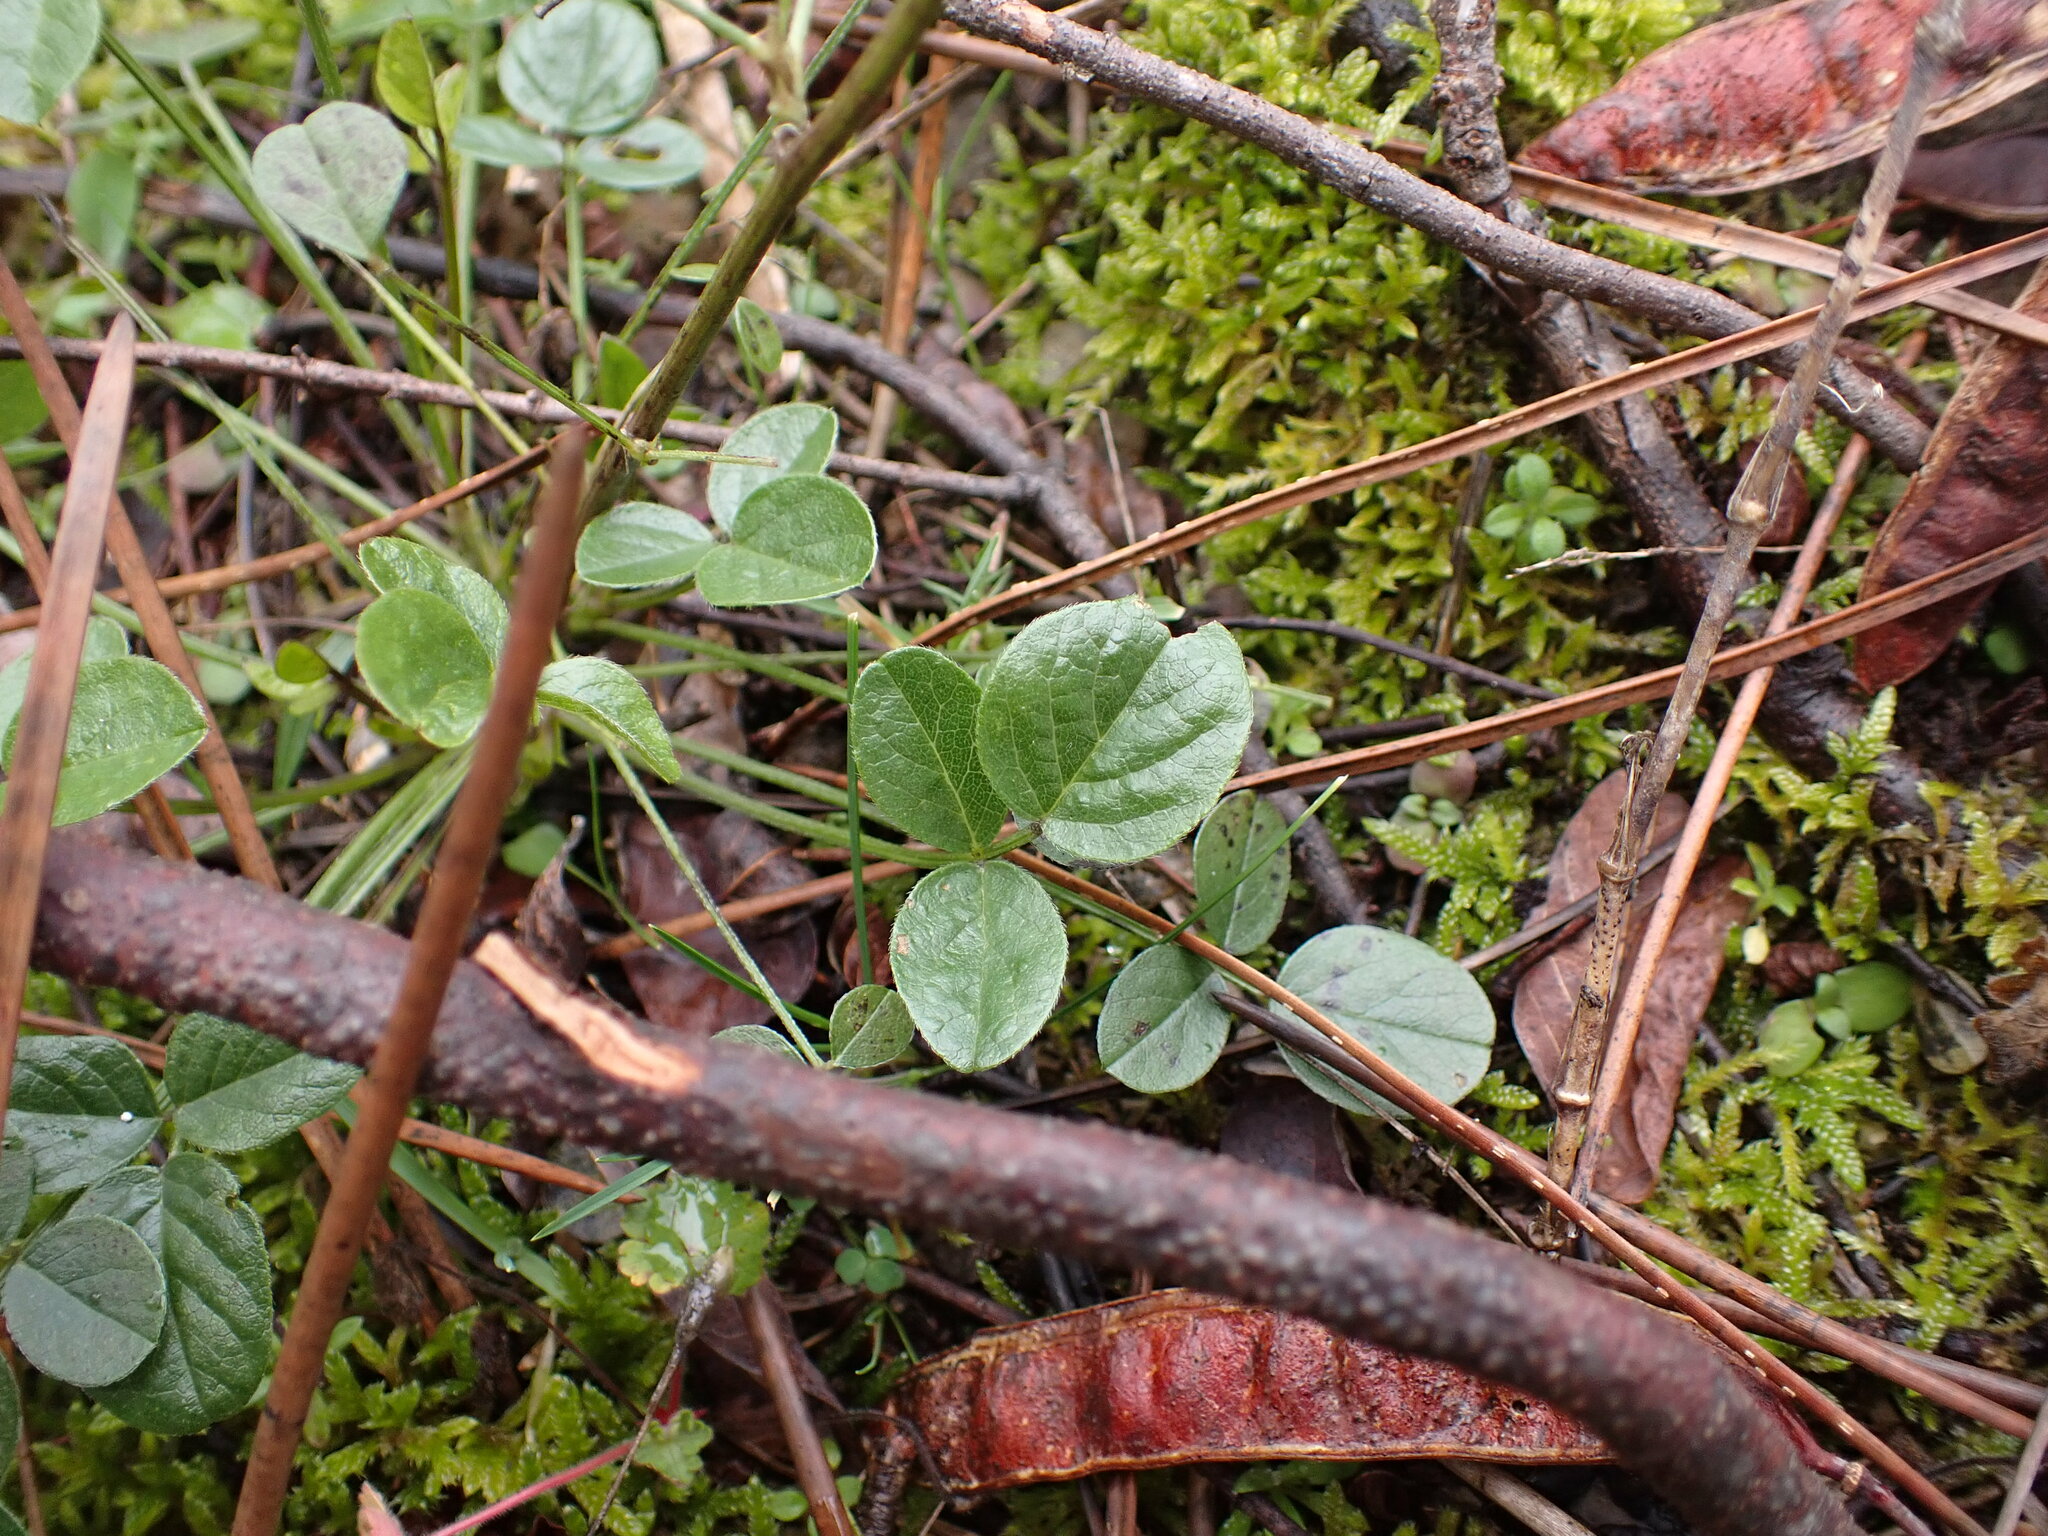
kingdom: Plantae
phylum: Tracheophyta
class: Magnoliopsida
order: Fabales
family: Fabaceae
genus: Bituminaria
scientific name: Bituminaria bituminosa
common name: Arabian pea
